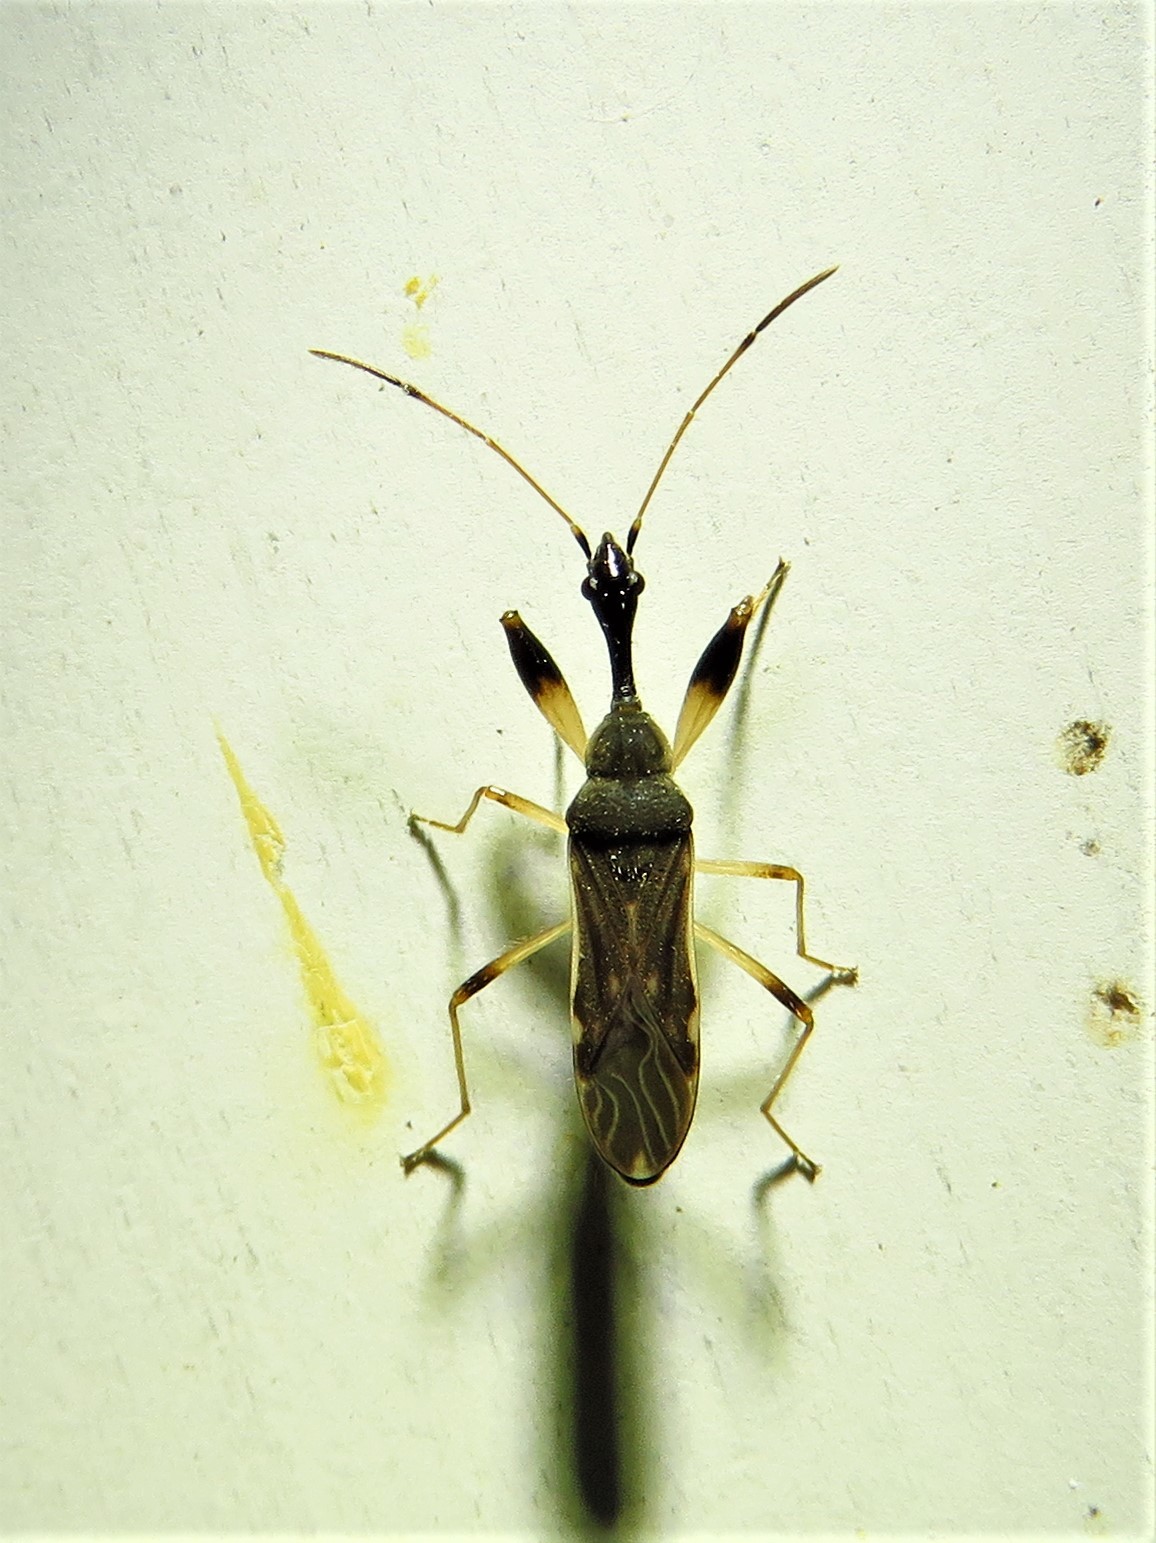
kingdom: Animalia
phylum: Arthropoda
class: Insecta
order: Hemiptera
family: Rhyparochromidae
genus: Myodocha
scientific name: Myodocha serripes
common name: Long-necked seed bug
